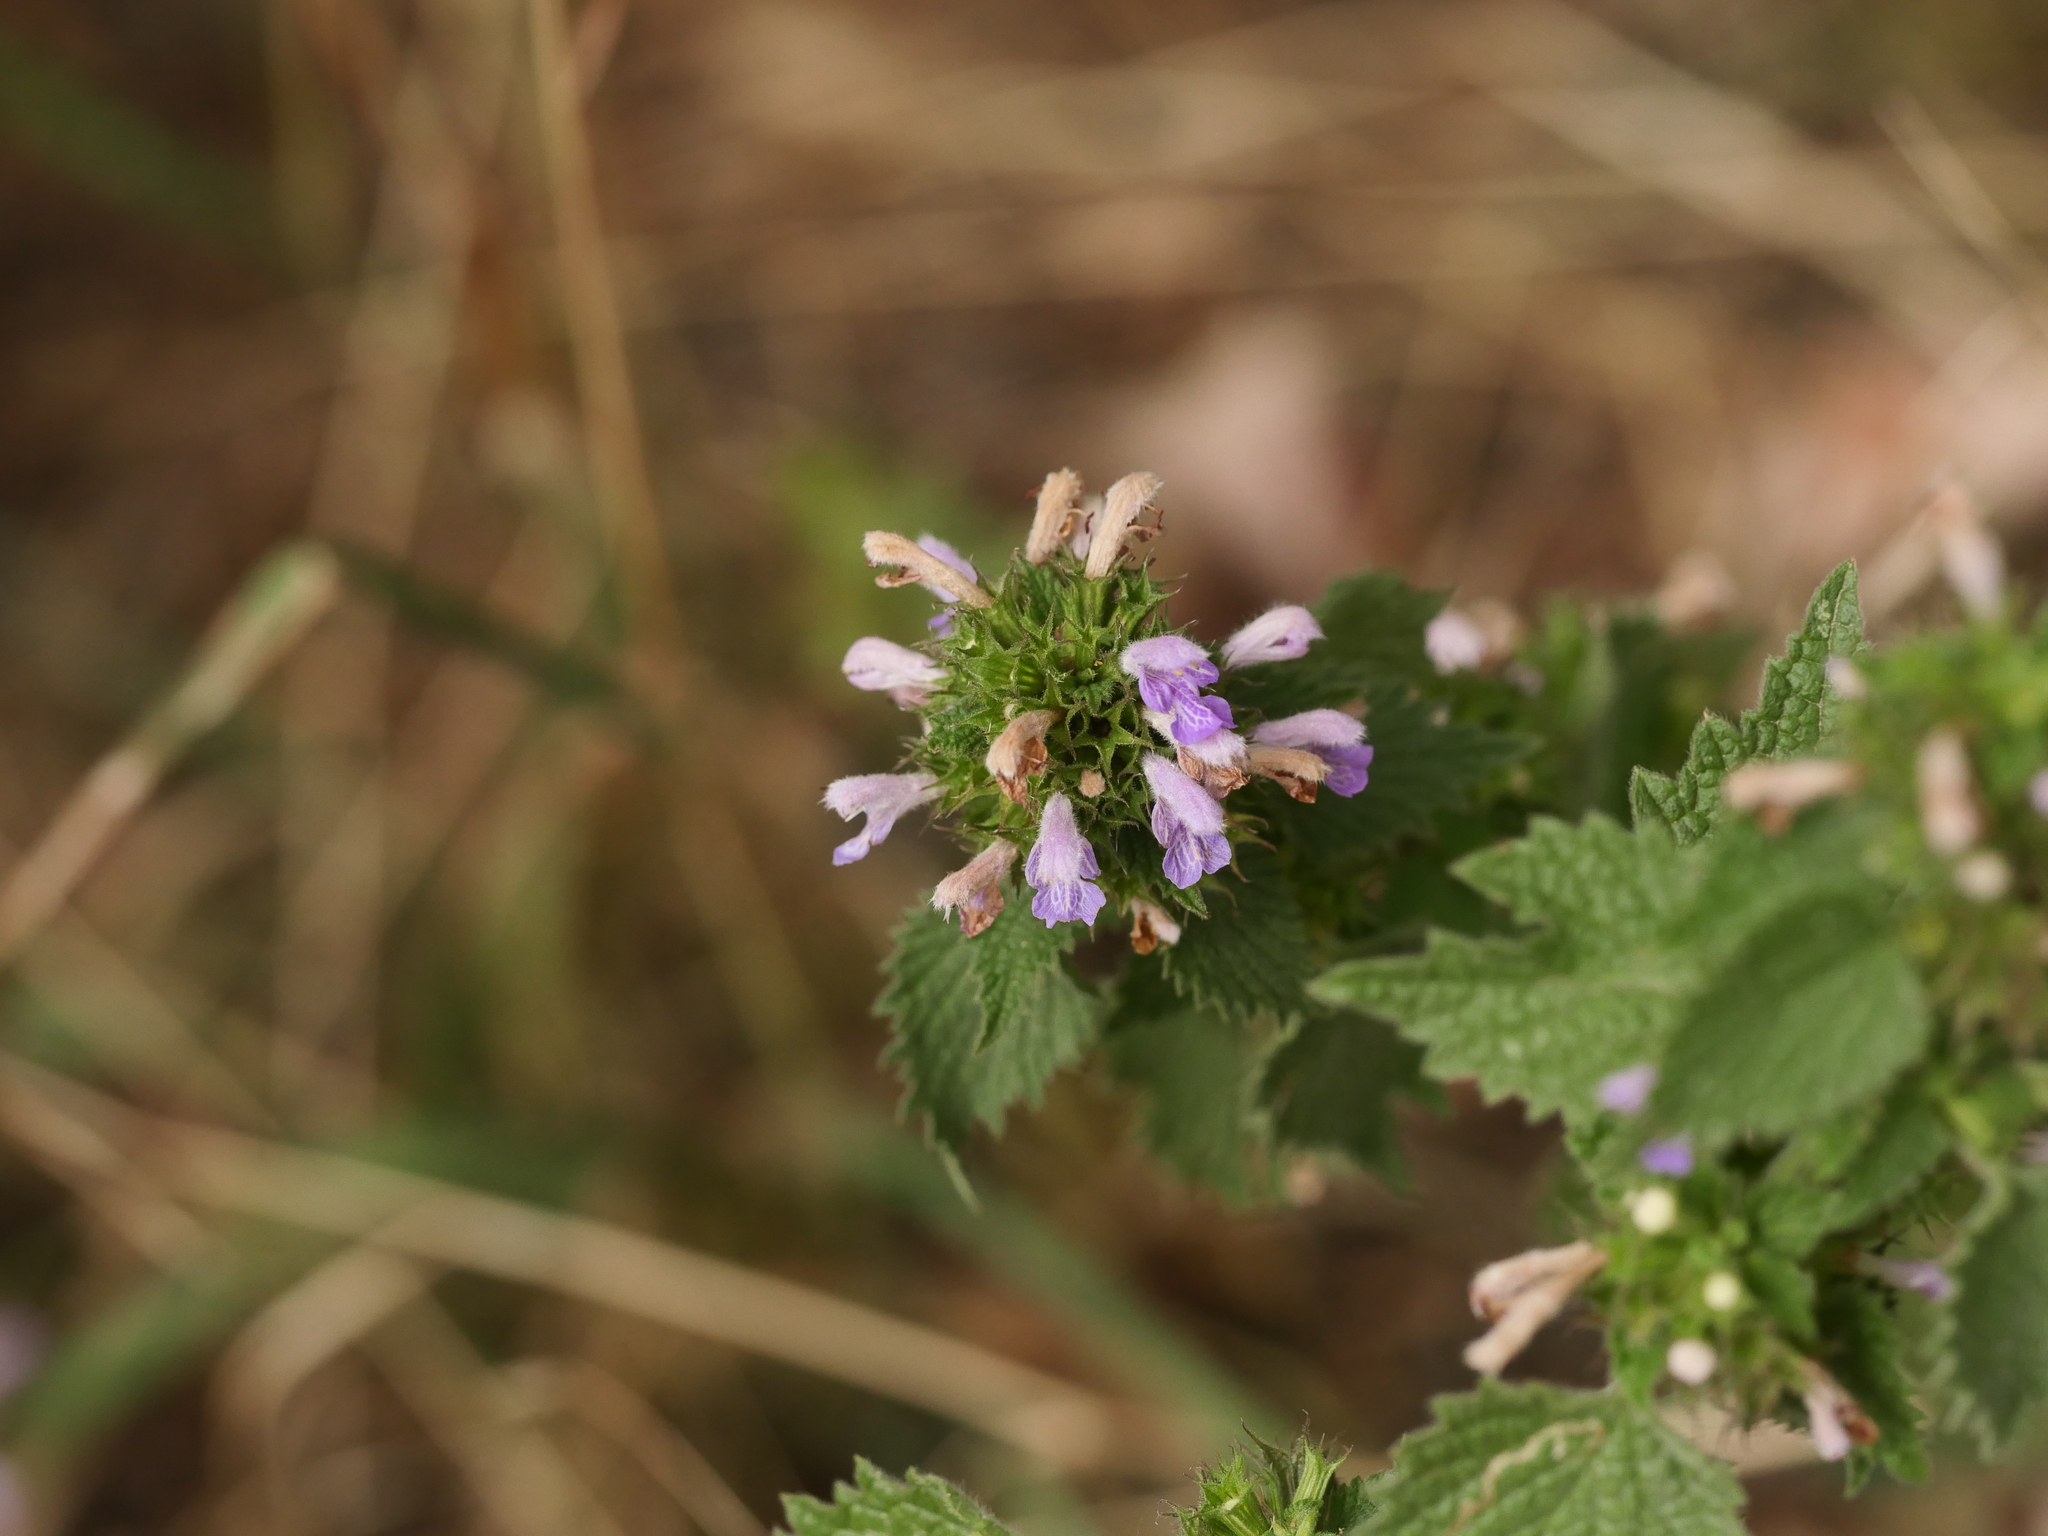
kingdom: Plantae
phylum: Tracheophyta
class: Magnoliopsida
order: Lamiales
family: Lamiaceae
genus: Ballota
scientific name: Ballota nigra
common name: Black horehound
